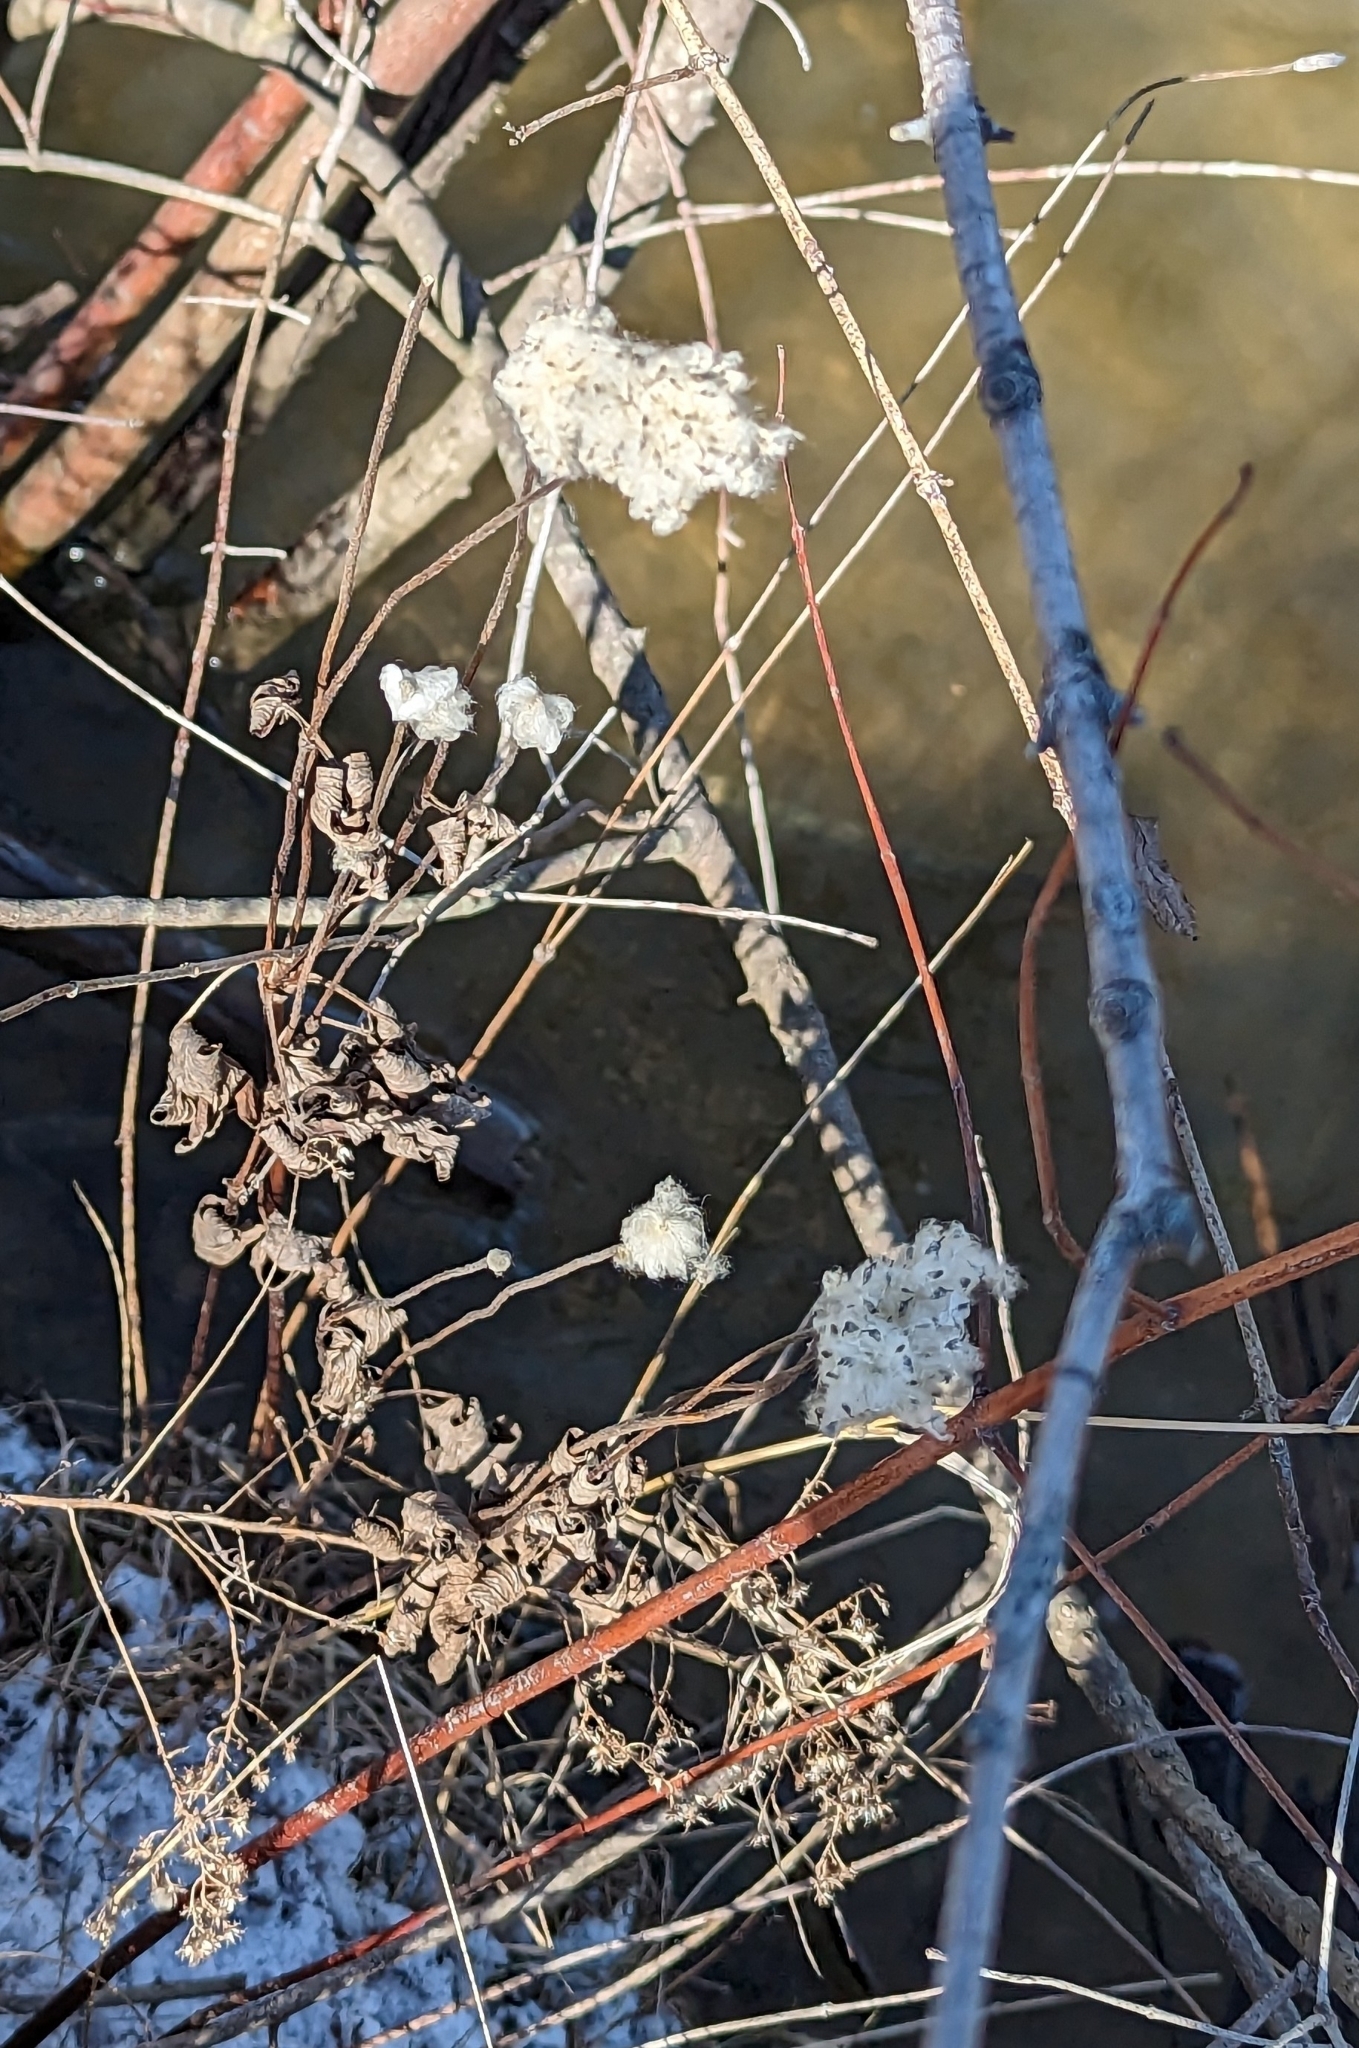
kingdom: Plantae
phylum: Tracheophyta
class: Magnoliopsida
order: Ranunculales
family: Ranunculaceae
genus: Anemone
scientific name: Anemone virginiana
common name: Tall anemone
